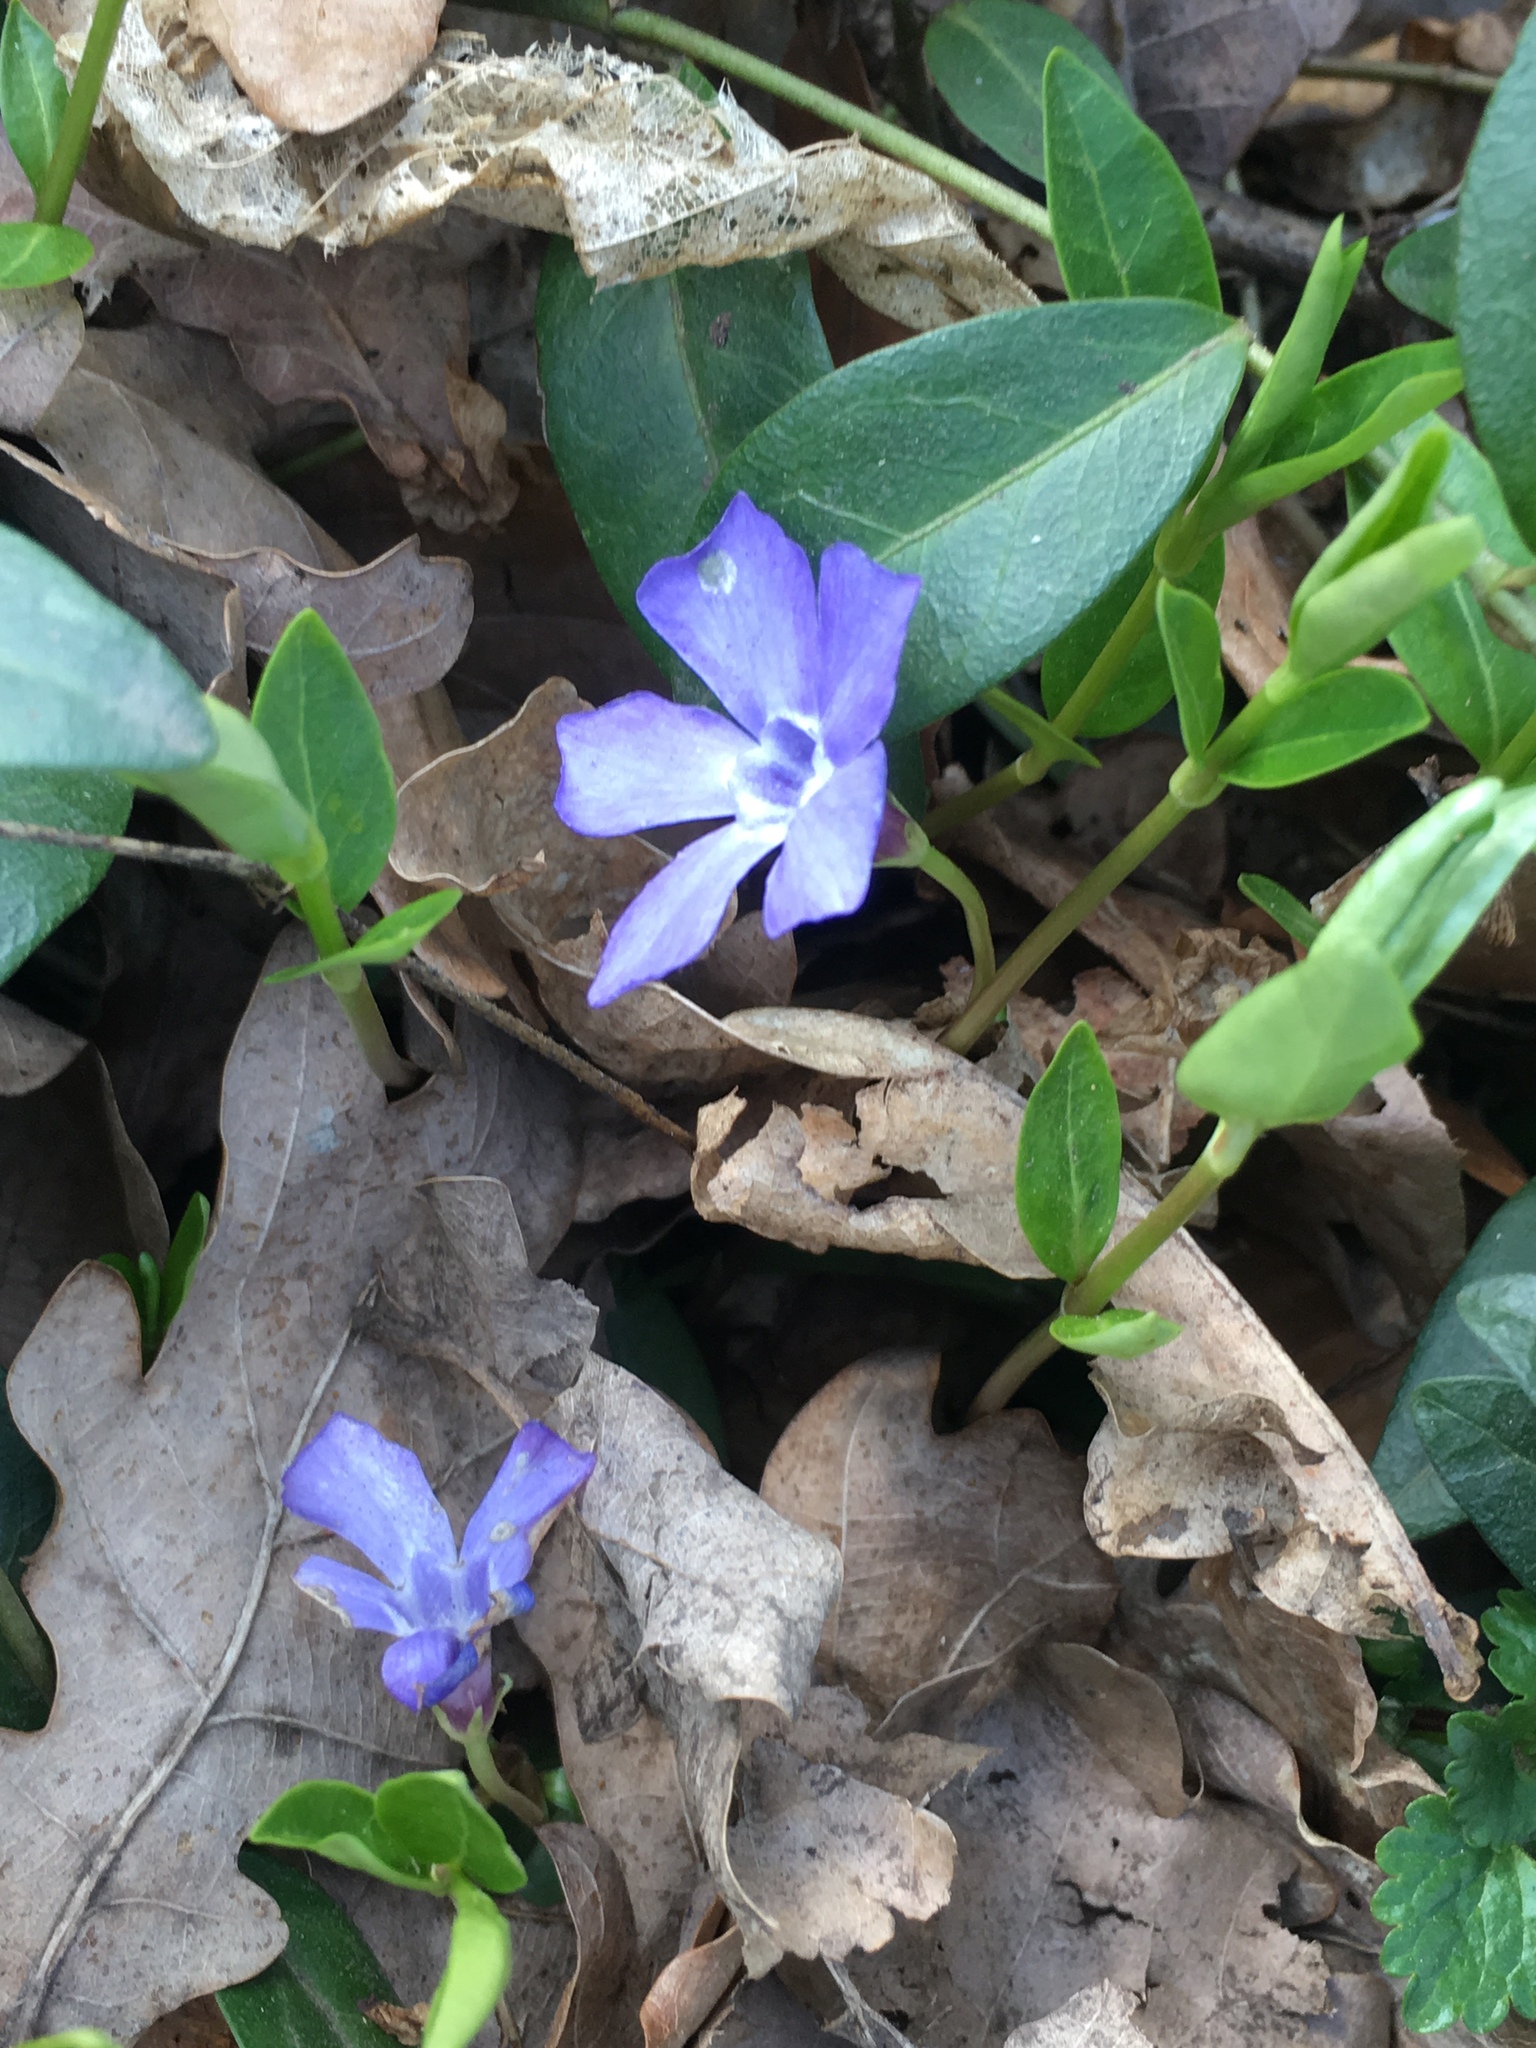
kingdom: Plantae
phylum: Tracheophyta
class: Magnoliopsida
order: Gentianales
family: Apocynaceae
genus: Vinca
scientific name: Vinca minor
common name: Lesser periwinkle
